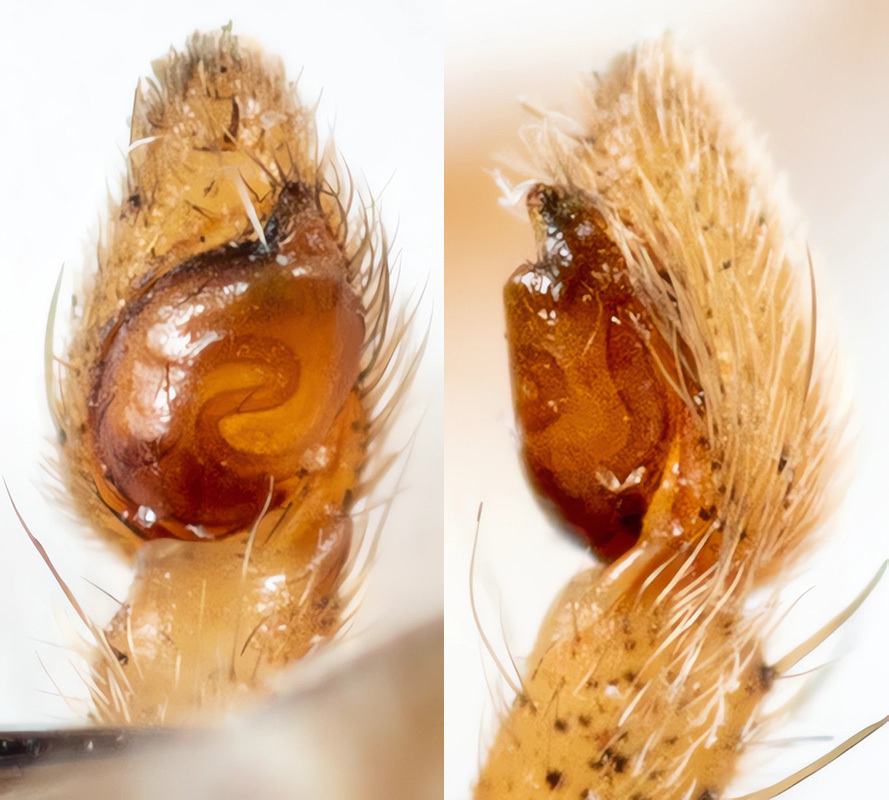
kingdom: Animalia
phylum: Arthropoda
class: Arachnida
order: Araneae
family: Philodromidae
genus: Tibellus
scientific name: Tibellus oblongus
